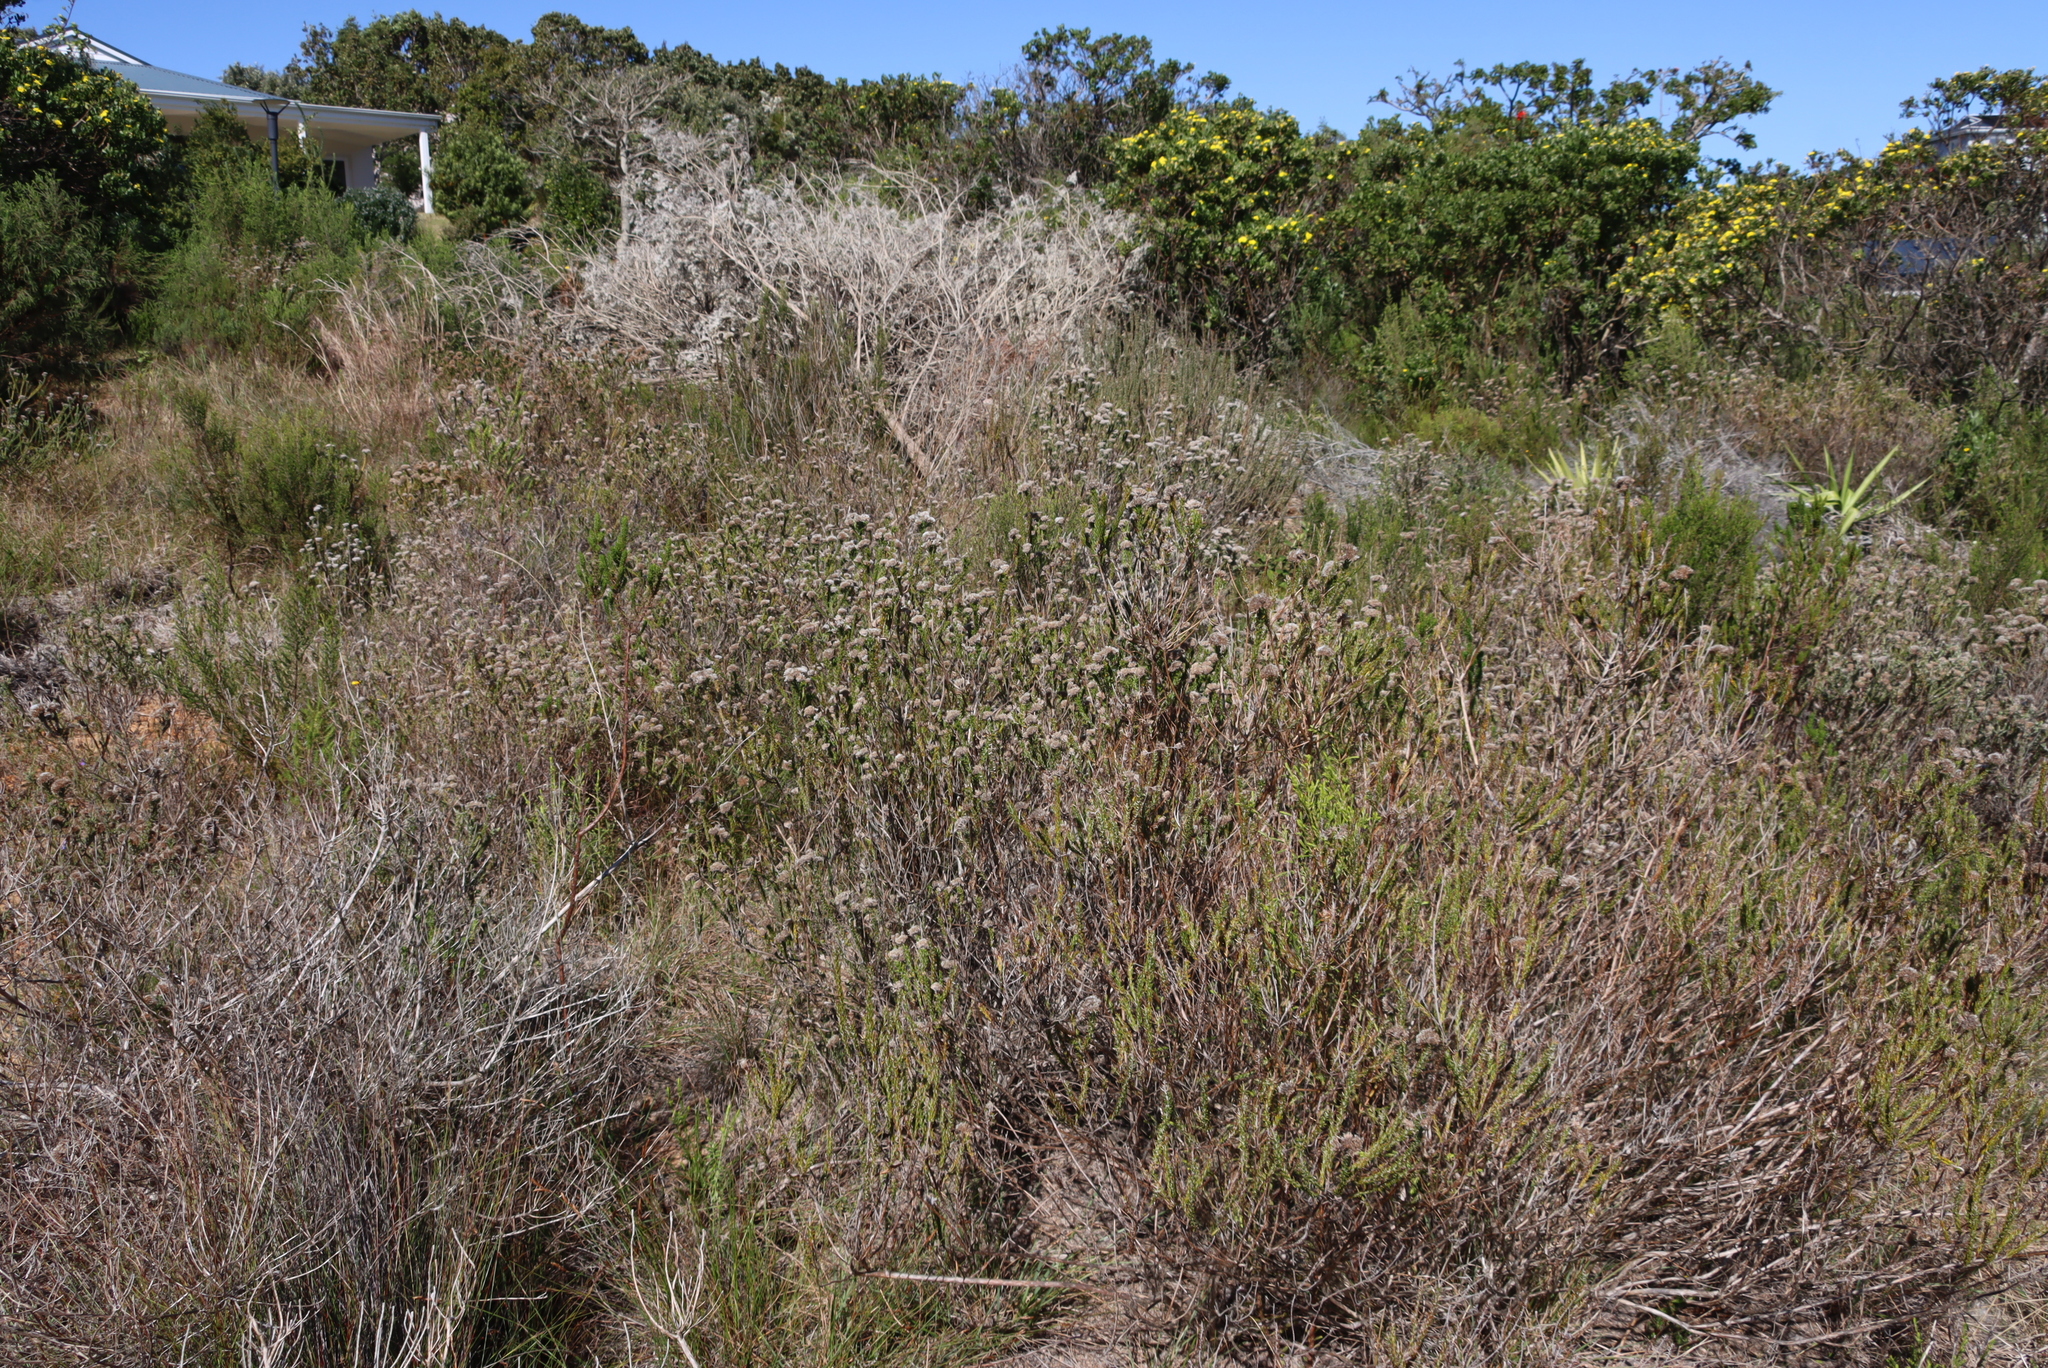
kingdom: Plantae
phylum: Tracheophyta
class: Magnoliopsida
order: Asterales
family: Asteraceae
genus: Metalasia
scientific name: Metalasia pungens
